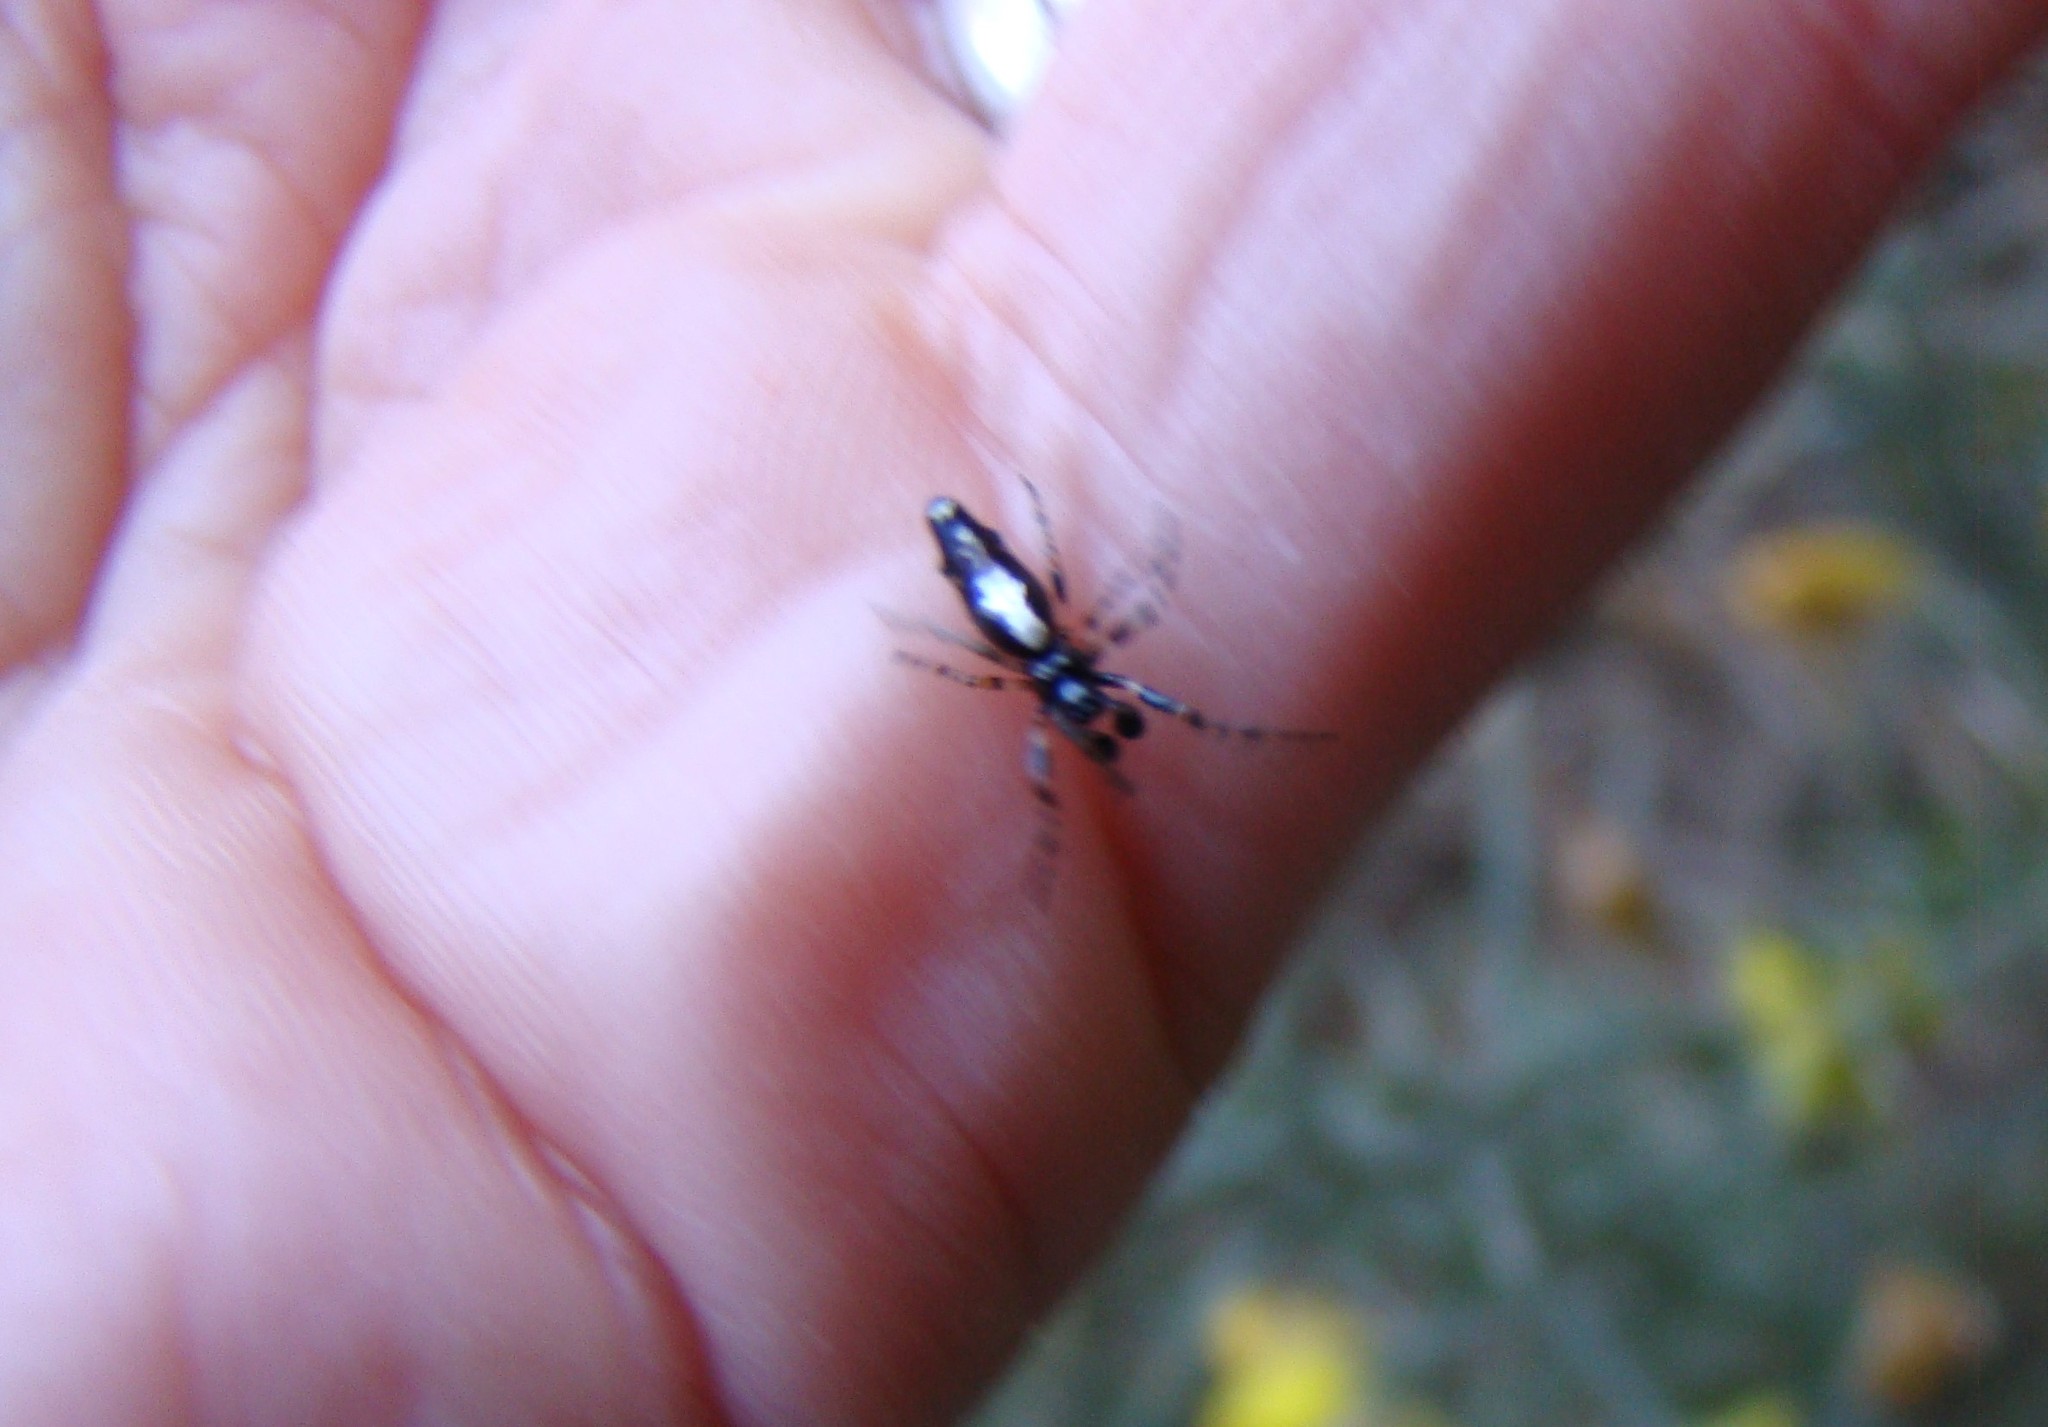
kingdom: Animalia
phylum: Arthropoda
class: Arachnida
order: Araneae
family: Araneidae
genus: Cyclosa
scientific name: Cyclosa trilobata
